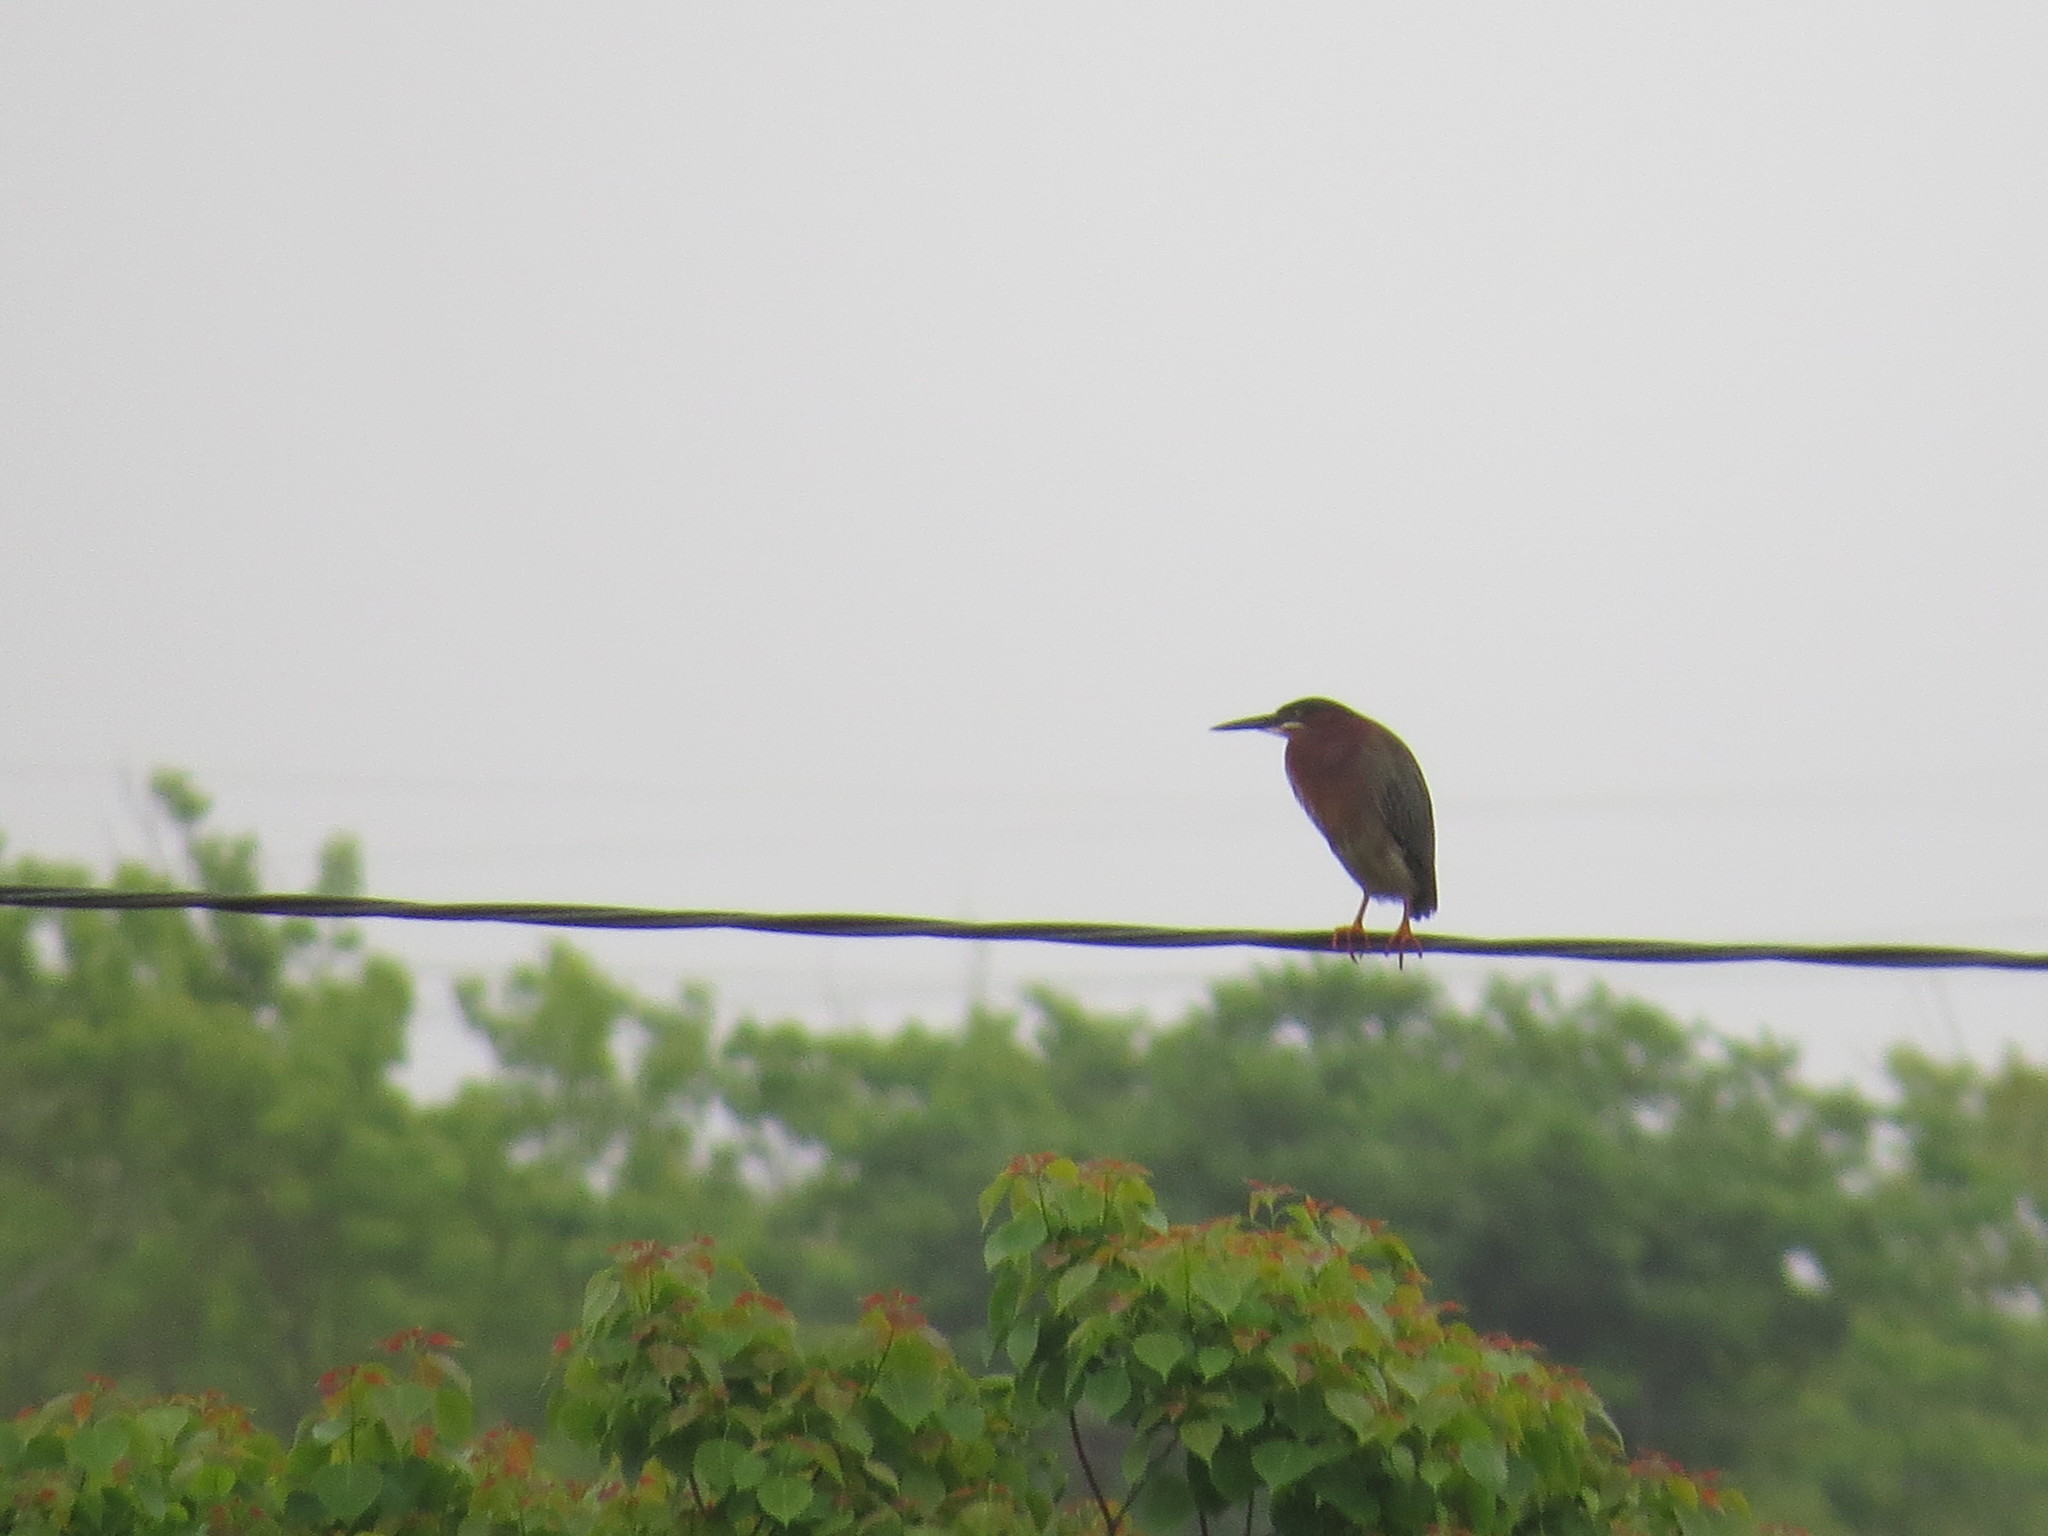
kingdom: Animalia
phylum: Chordata
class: Aves
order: Pelecaniformes
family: Ardeidae
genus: Butorides
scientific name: Butorides virescens
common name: Green heron
